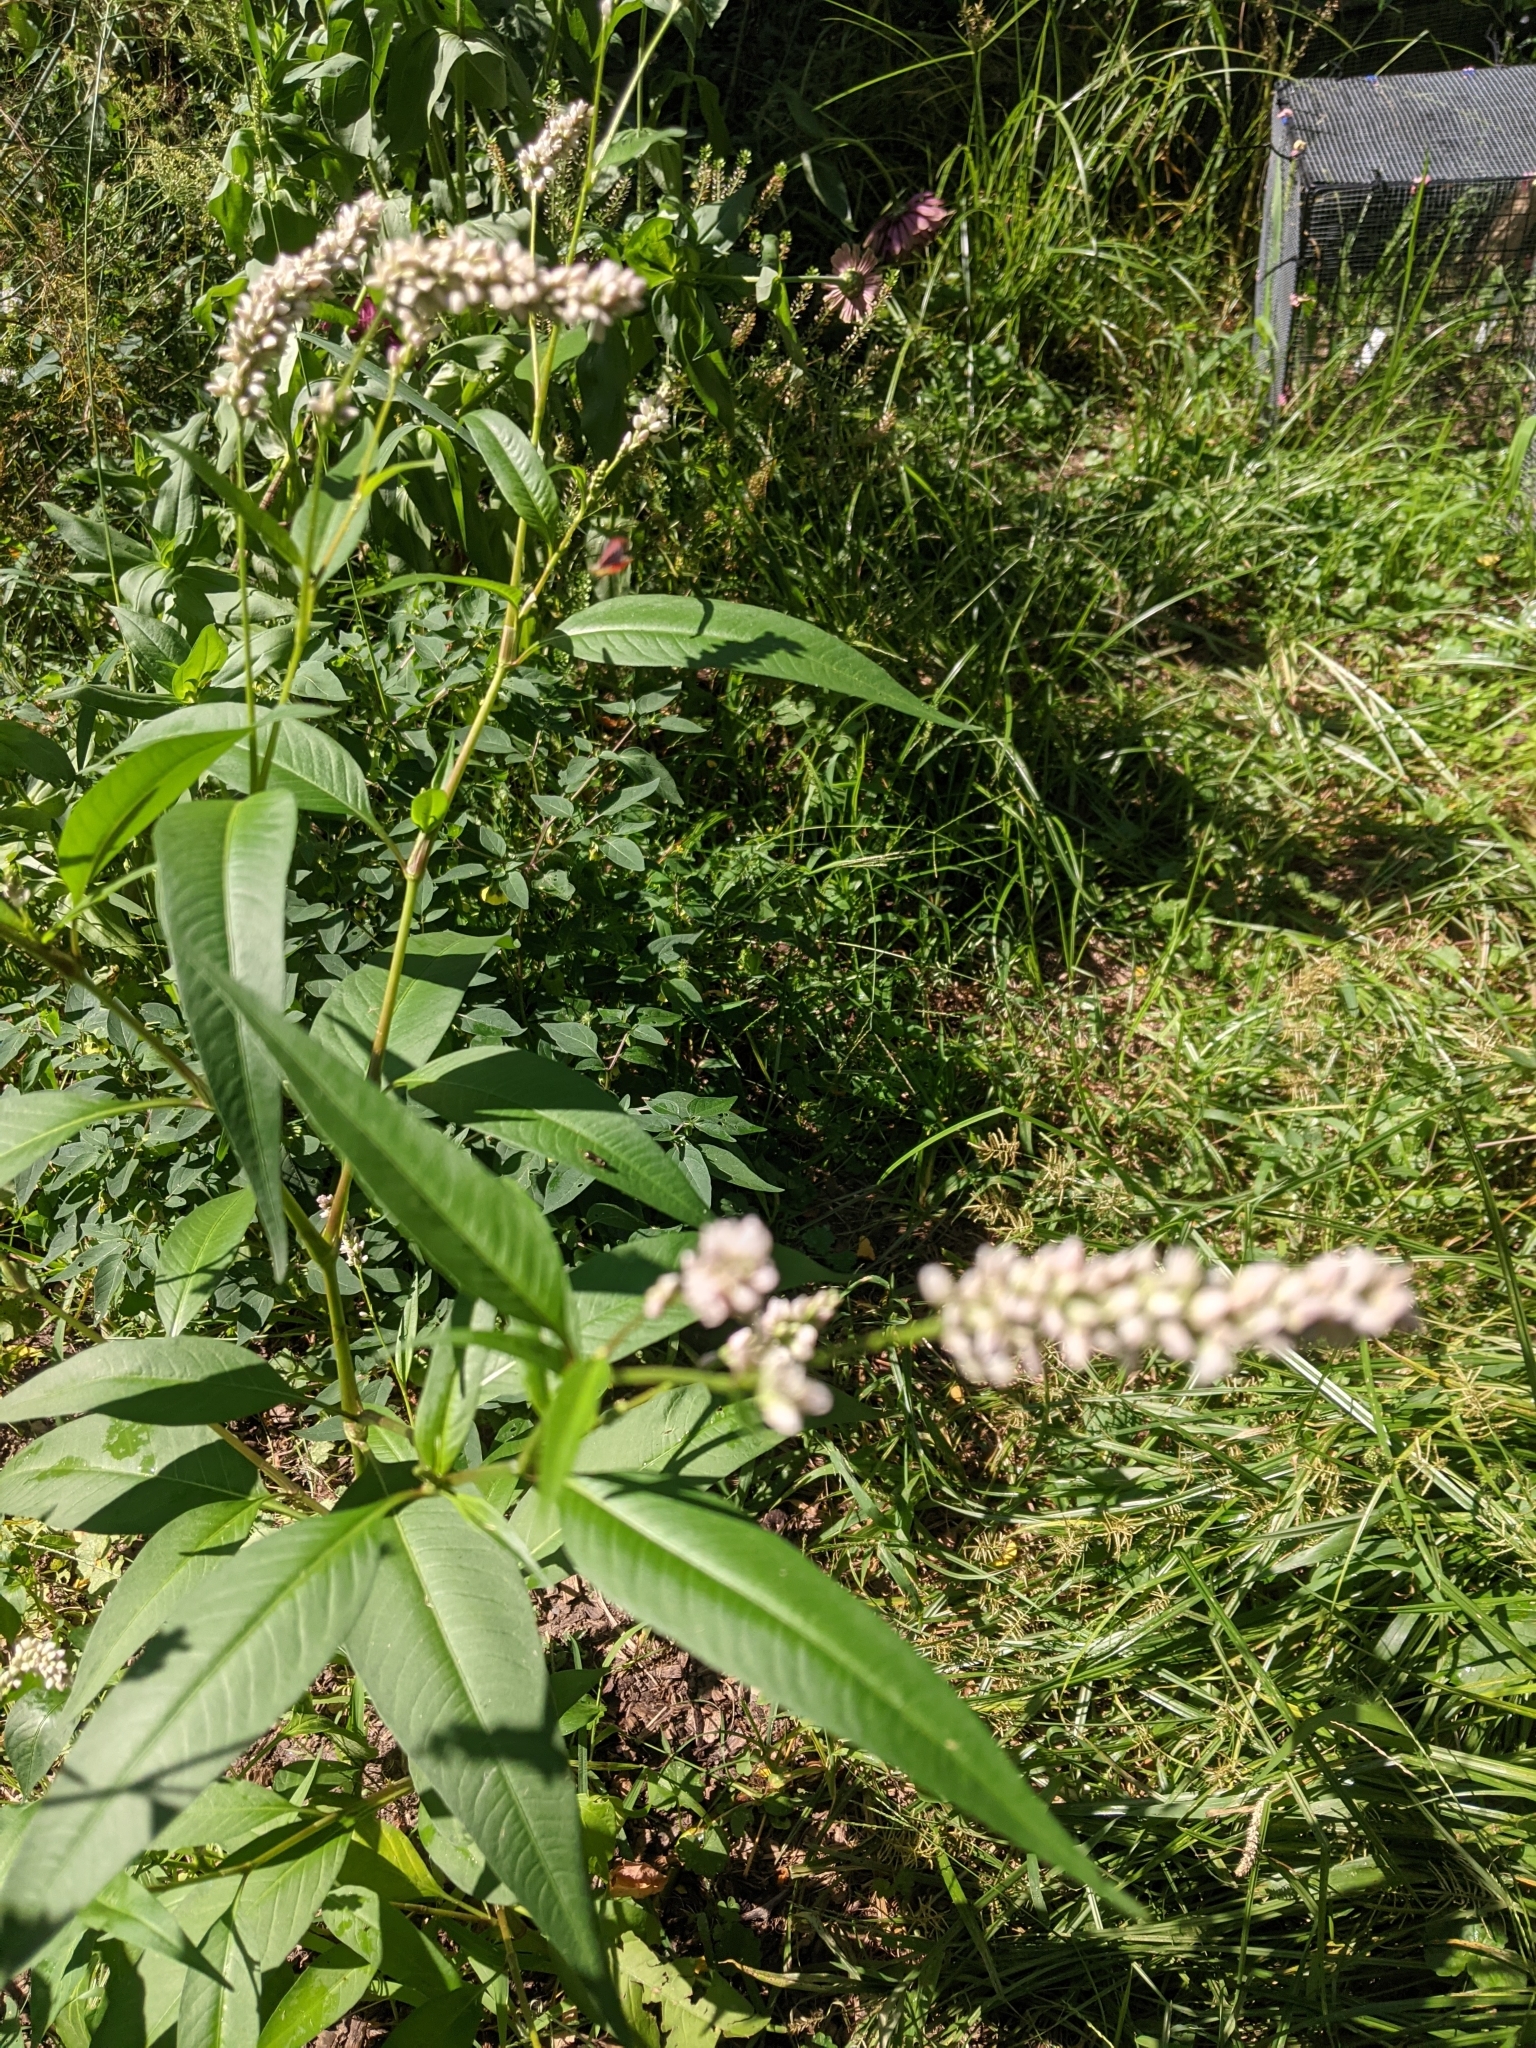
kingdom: Plantae
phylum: Tracheophyta
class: Magnoliopsida
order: Caryophyllales
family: Polygonaceae
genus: Persicaria
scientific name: Persicaria lapathifolia
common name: Curlytop knotweed
